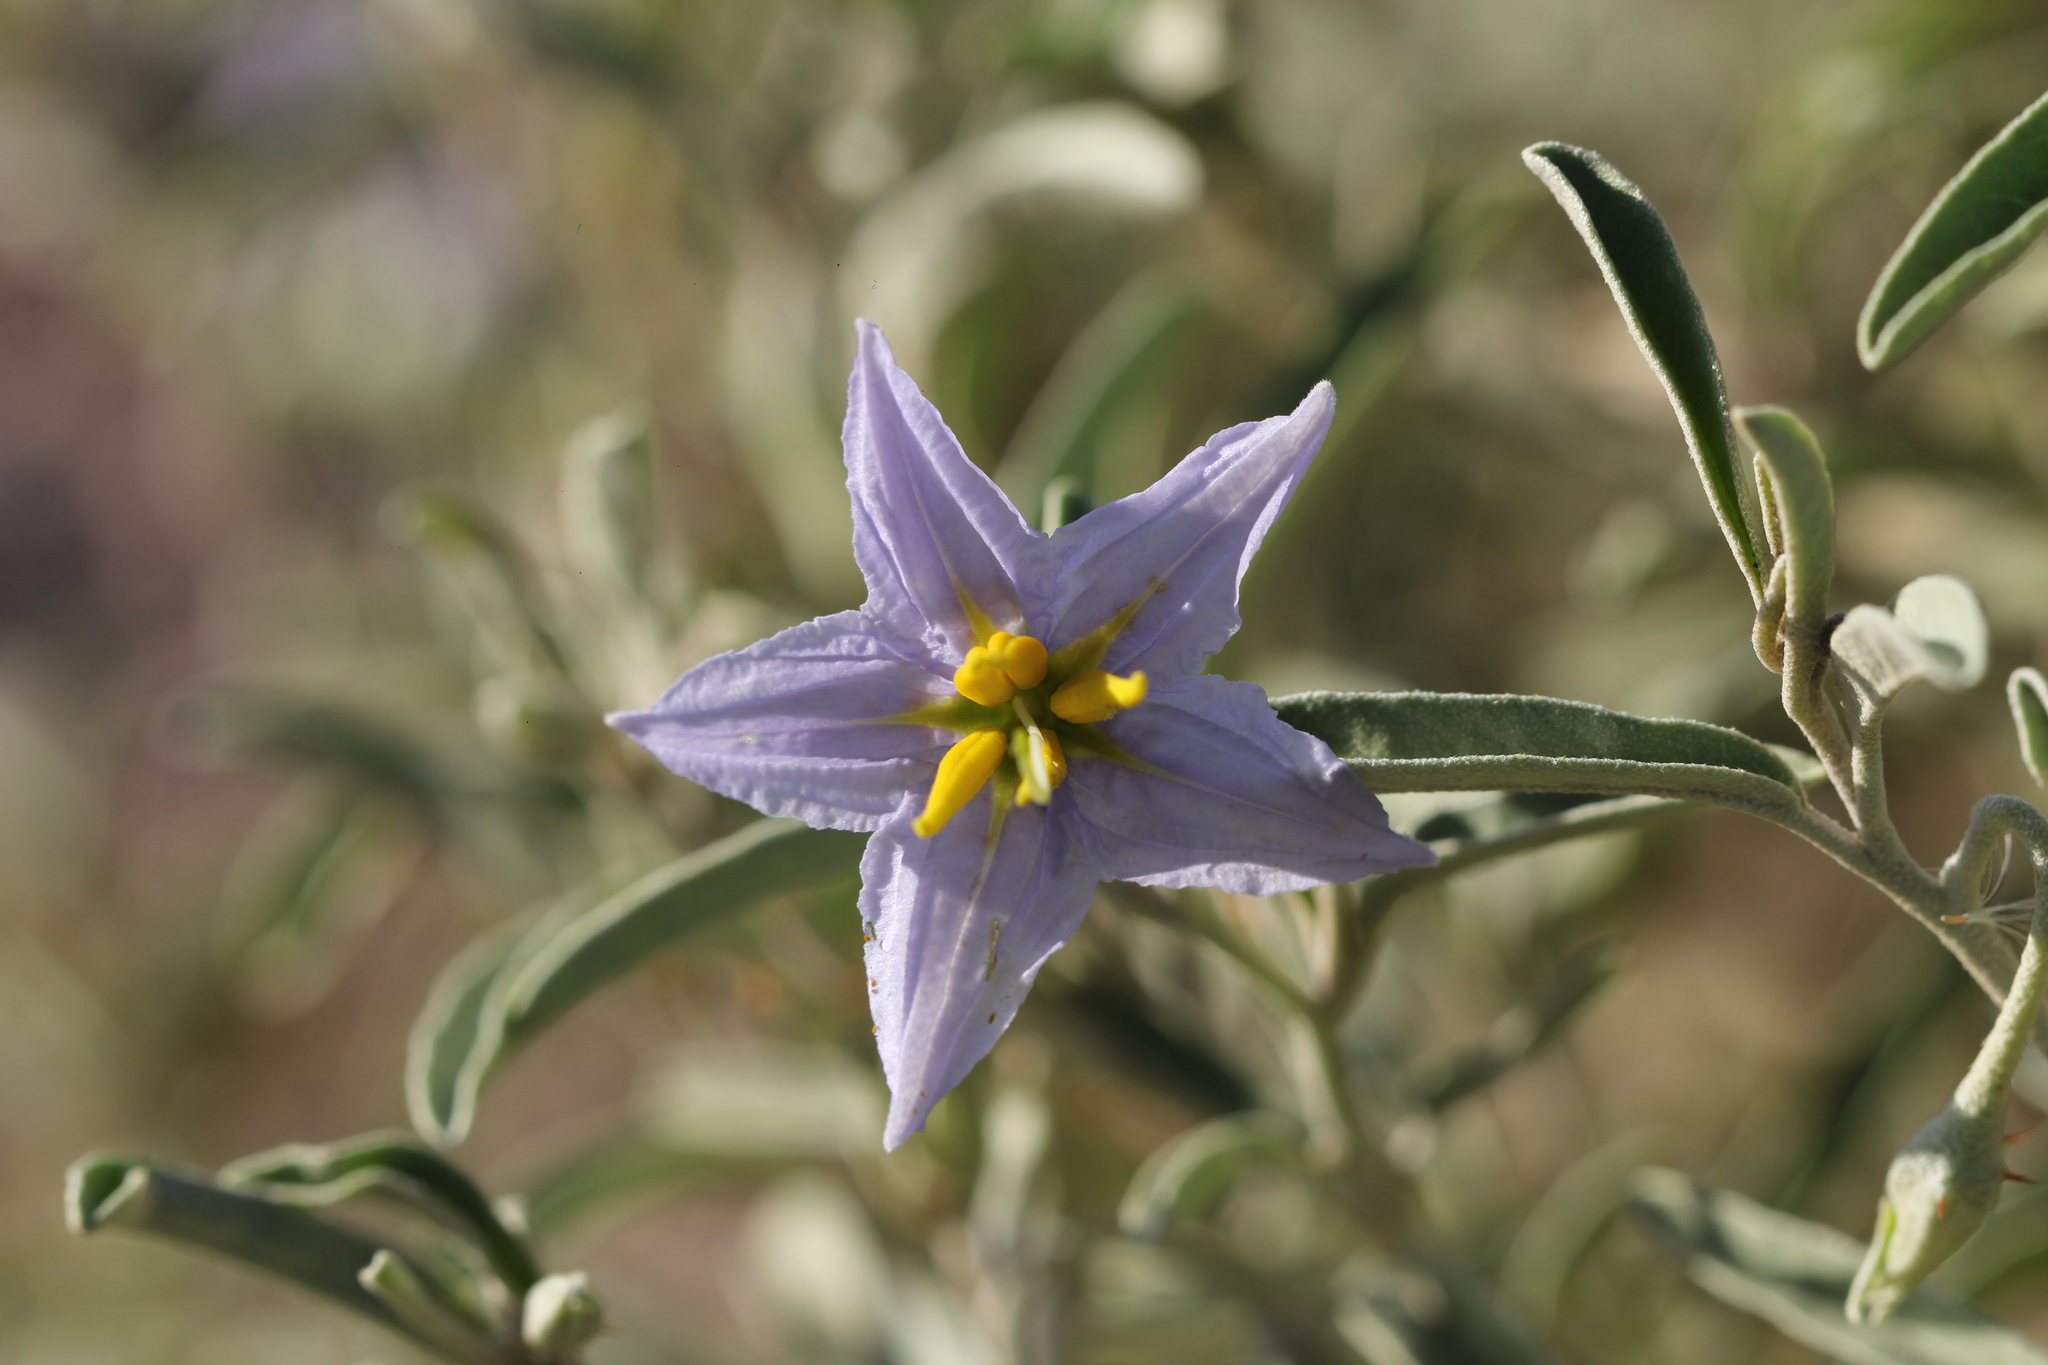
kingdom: Plantae
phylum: Tracheophyta
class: Magnoliopsida
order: Solanales
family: Solanaceae
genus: Solanum
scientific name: Solanum elaeagnifolium
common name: Silverleaf nightshade
